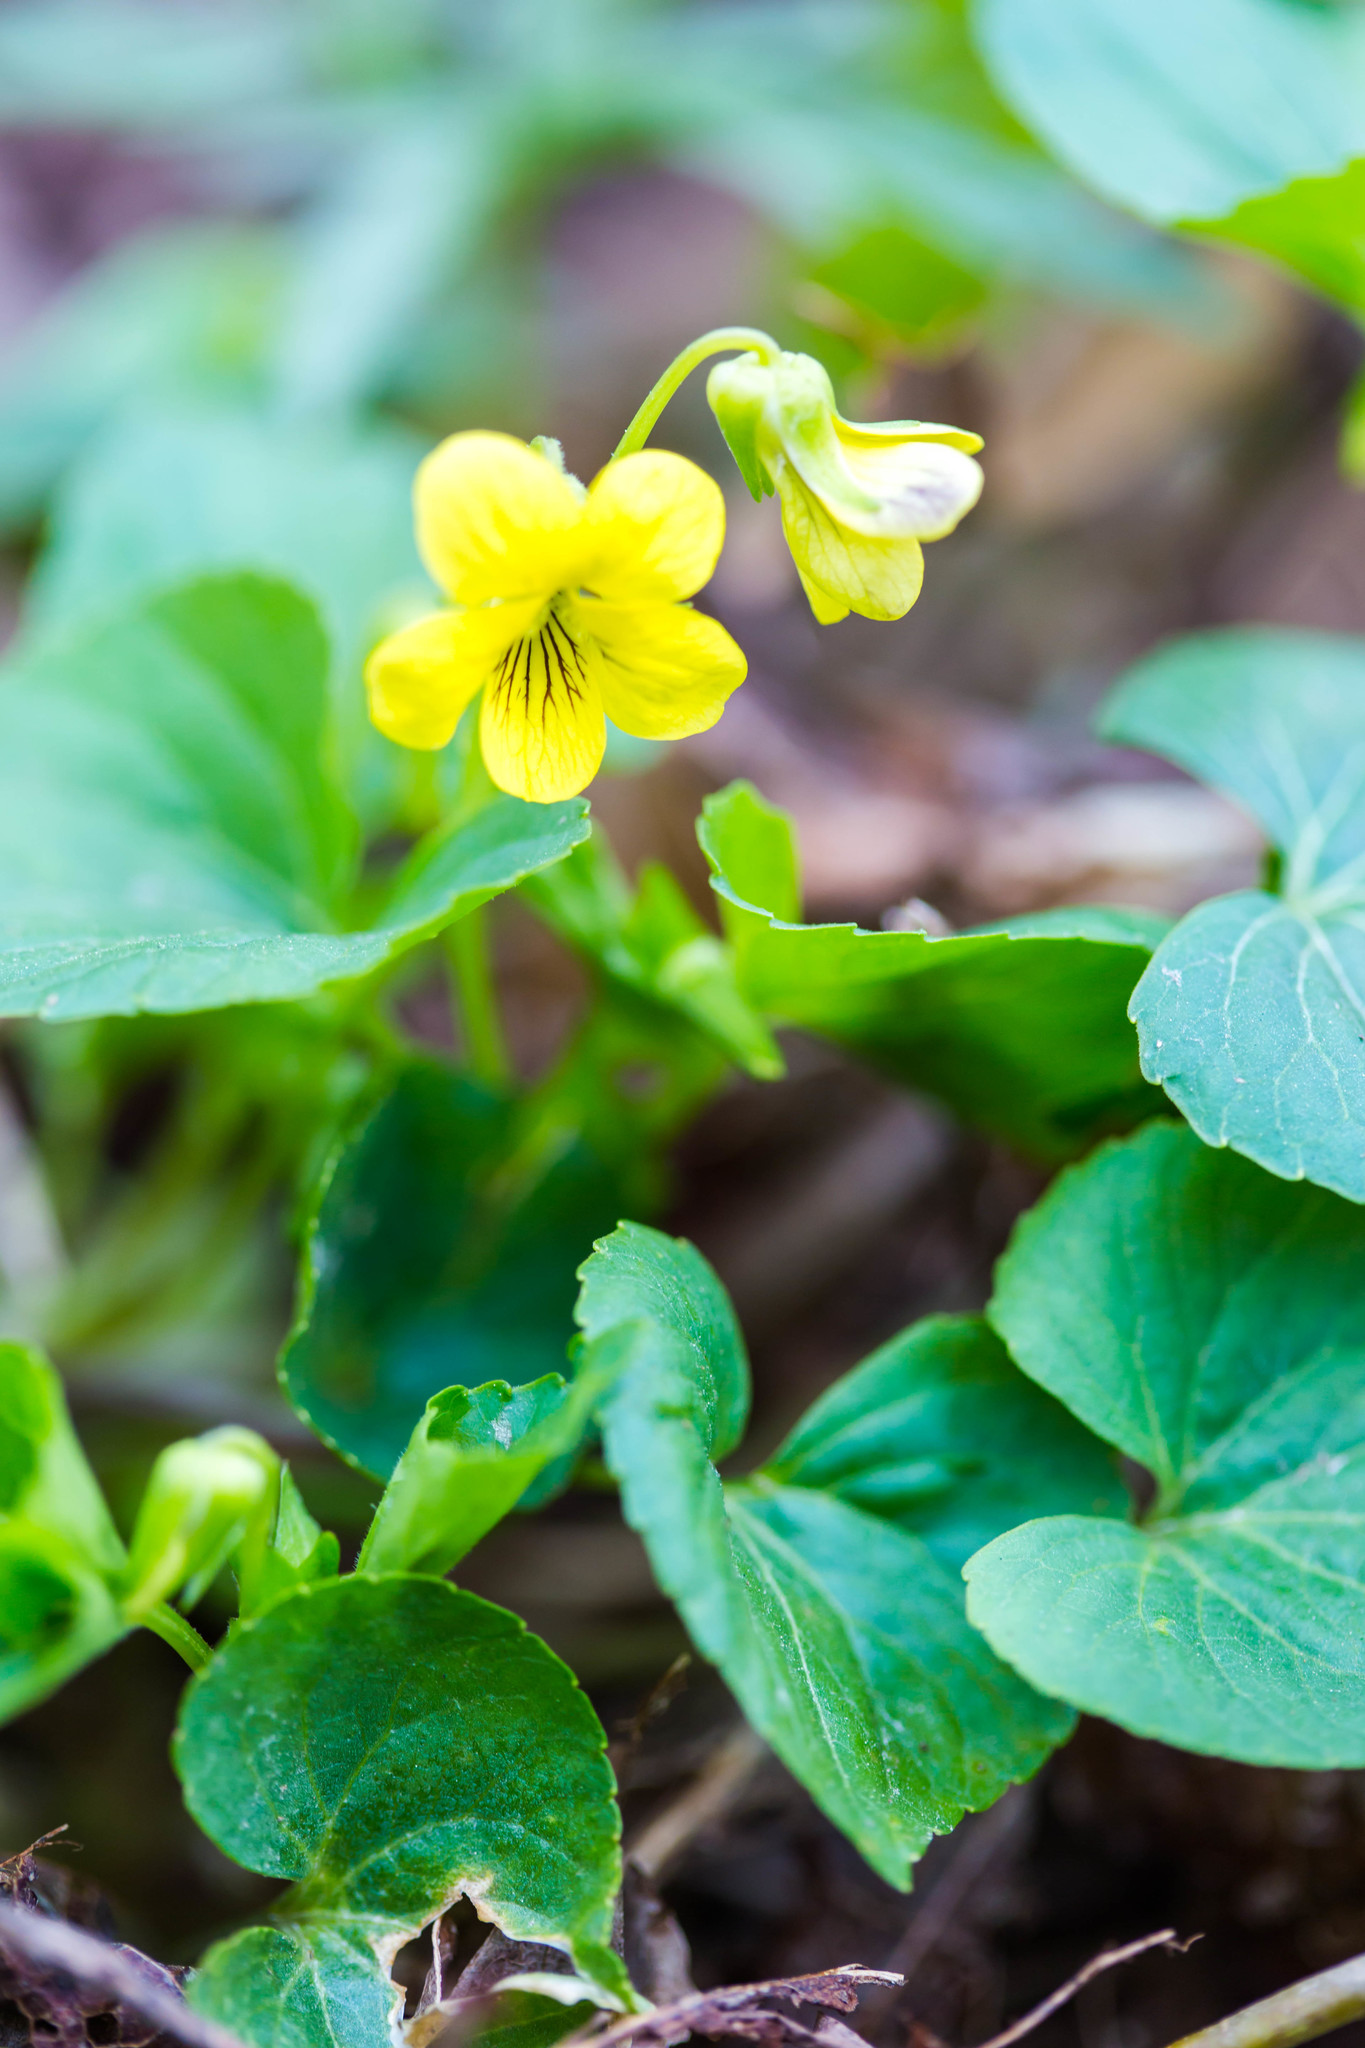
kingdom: Plantae
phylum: Tracheophyta
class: Magnoliopsida
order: Malpighiales
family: Violaceae
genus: Viola
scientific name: Viola eriocarpa
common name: Smooth yellow violet
